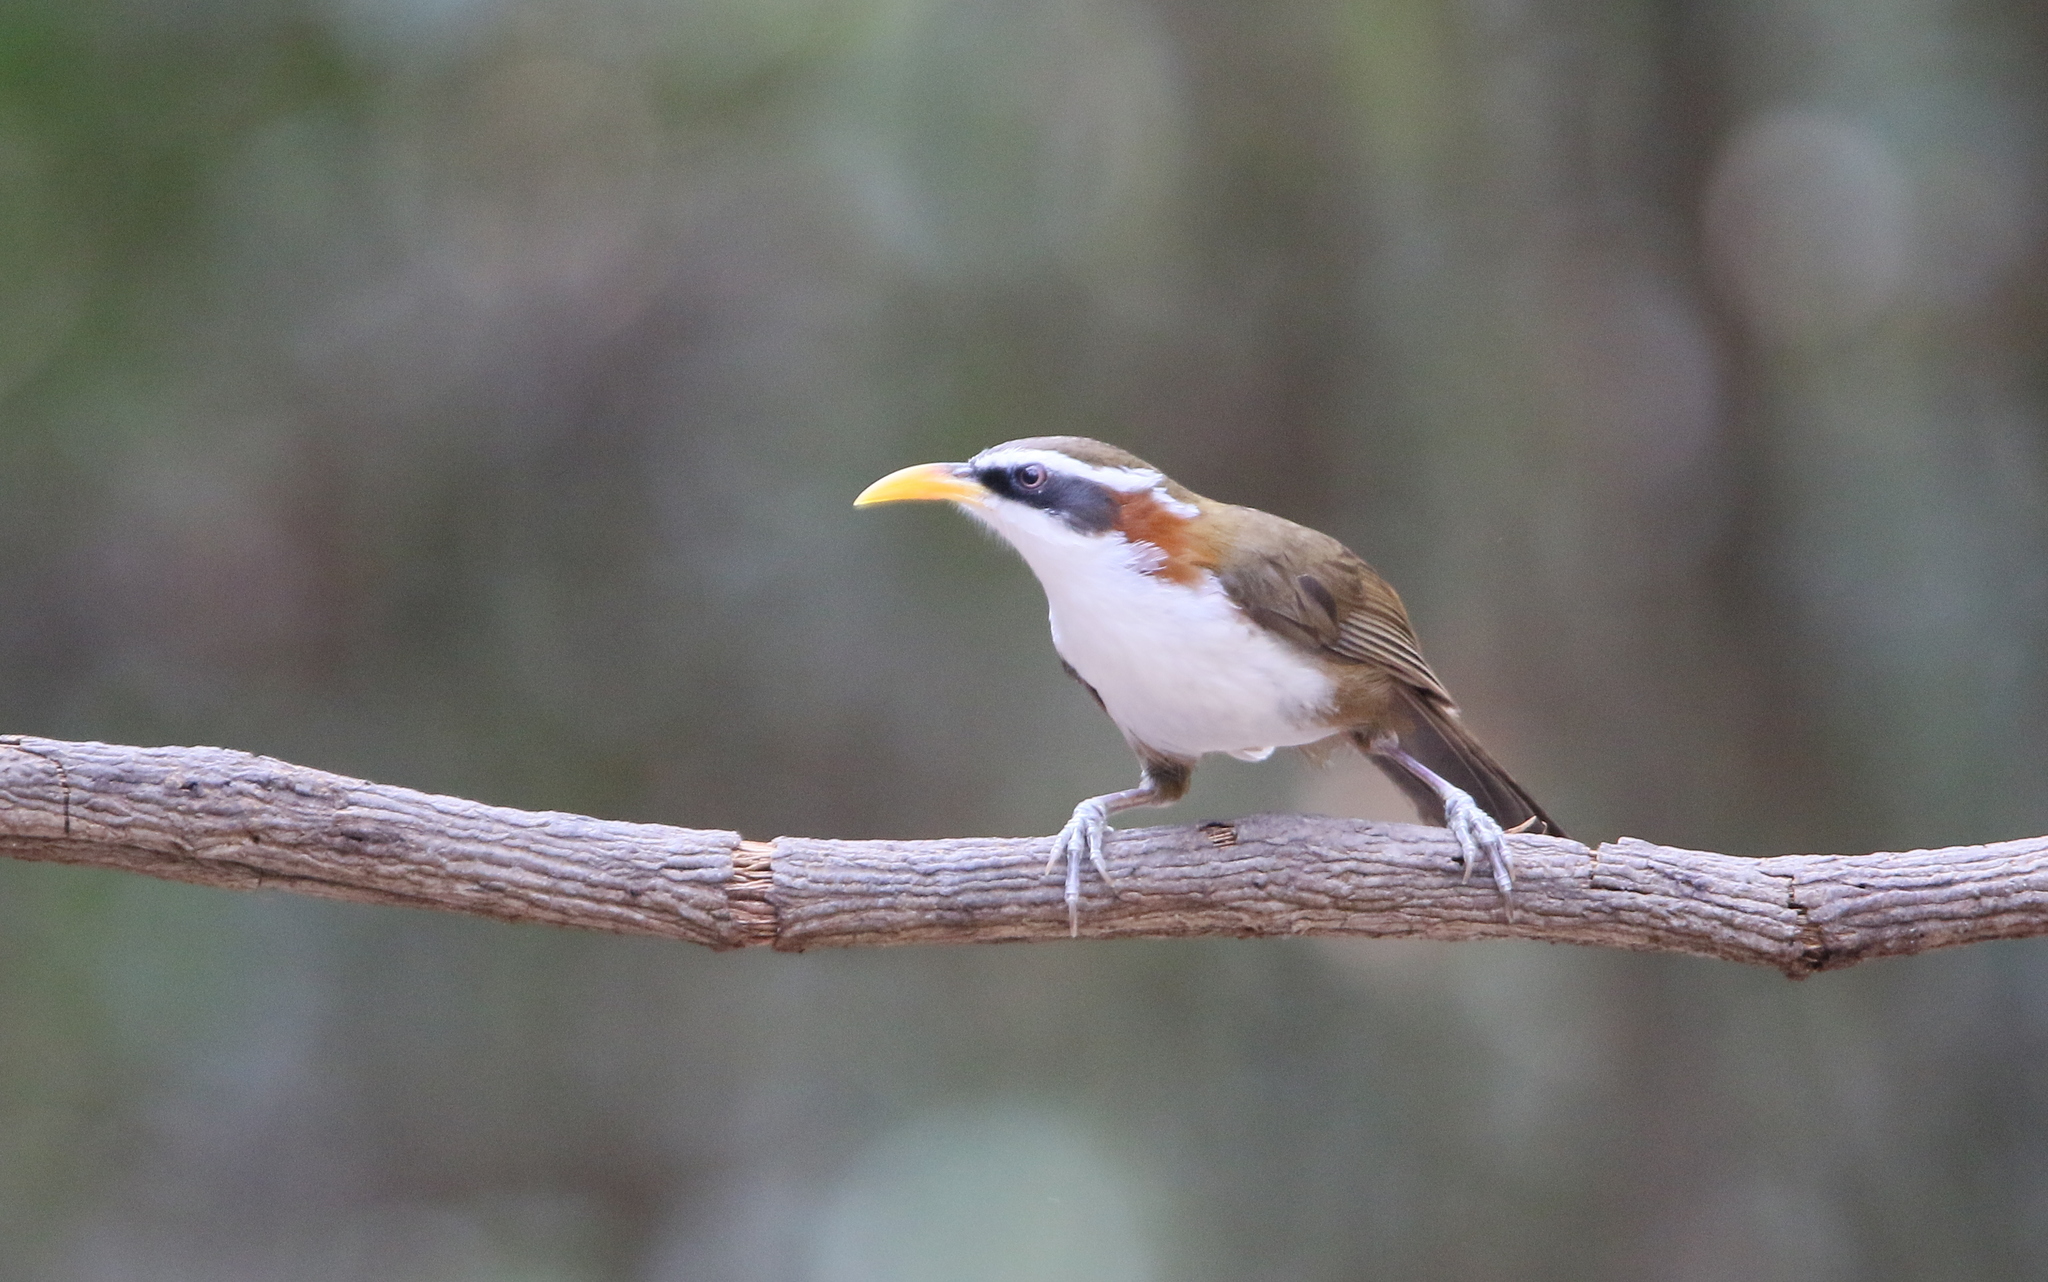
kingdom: Animalia
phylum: Chordata
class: Aves
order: Passeriformes
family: Timaliidae
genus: Pomatorhinus
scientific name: Pomatorhinus schisticeps
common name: White-browed scimitar babbler
